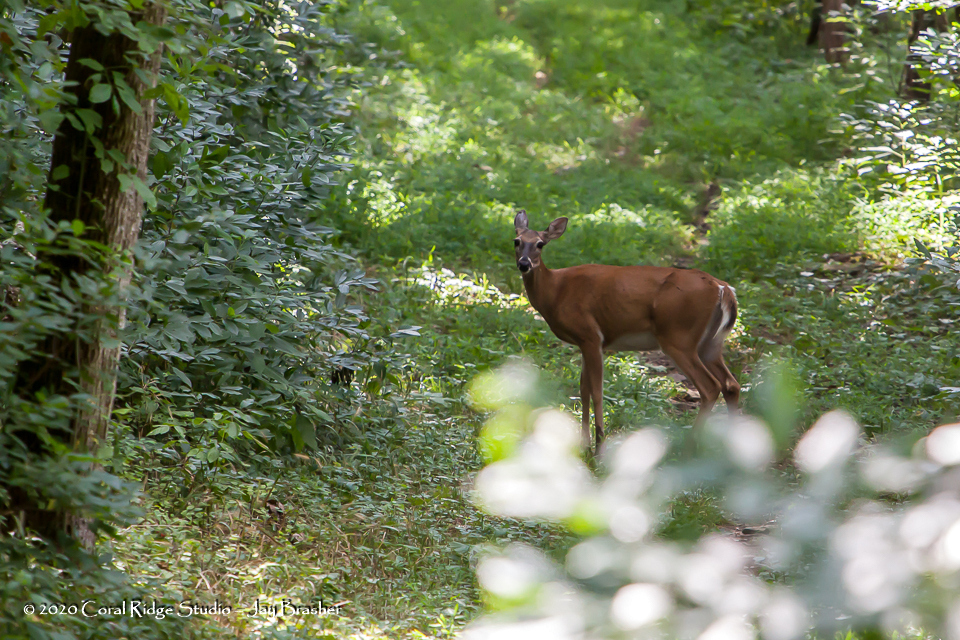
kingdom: Animalia
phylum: Chordata
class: Mammalia
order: Artiodactyla
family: Cervidae
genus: Odocoileus
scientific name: Odocoileus virginianus
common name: White-tailed deer
